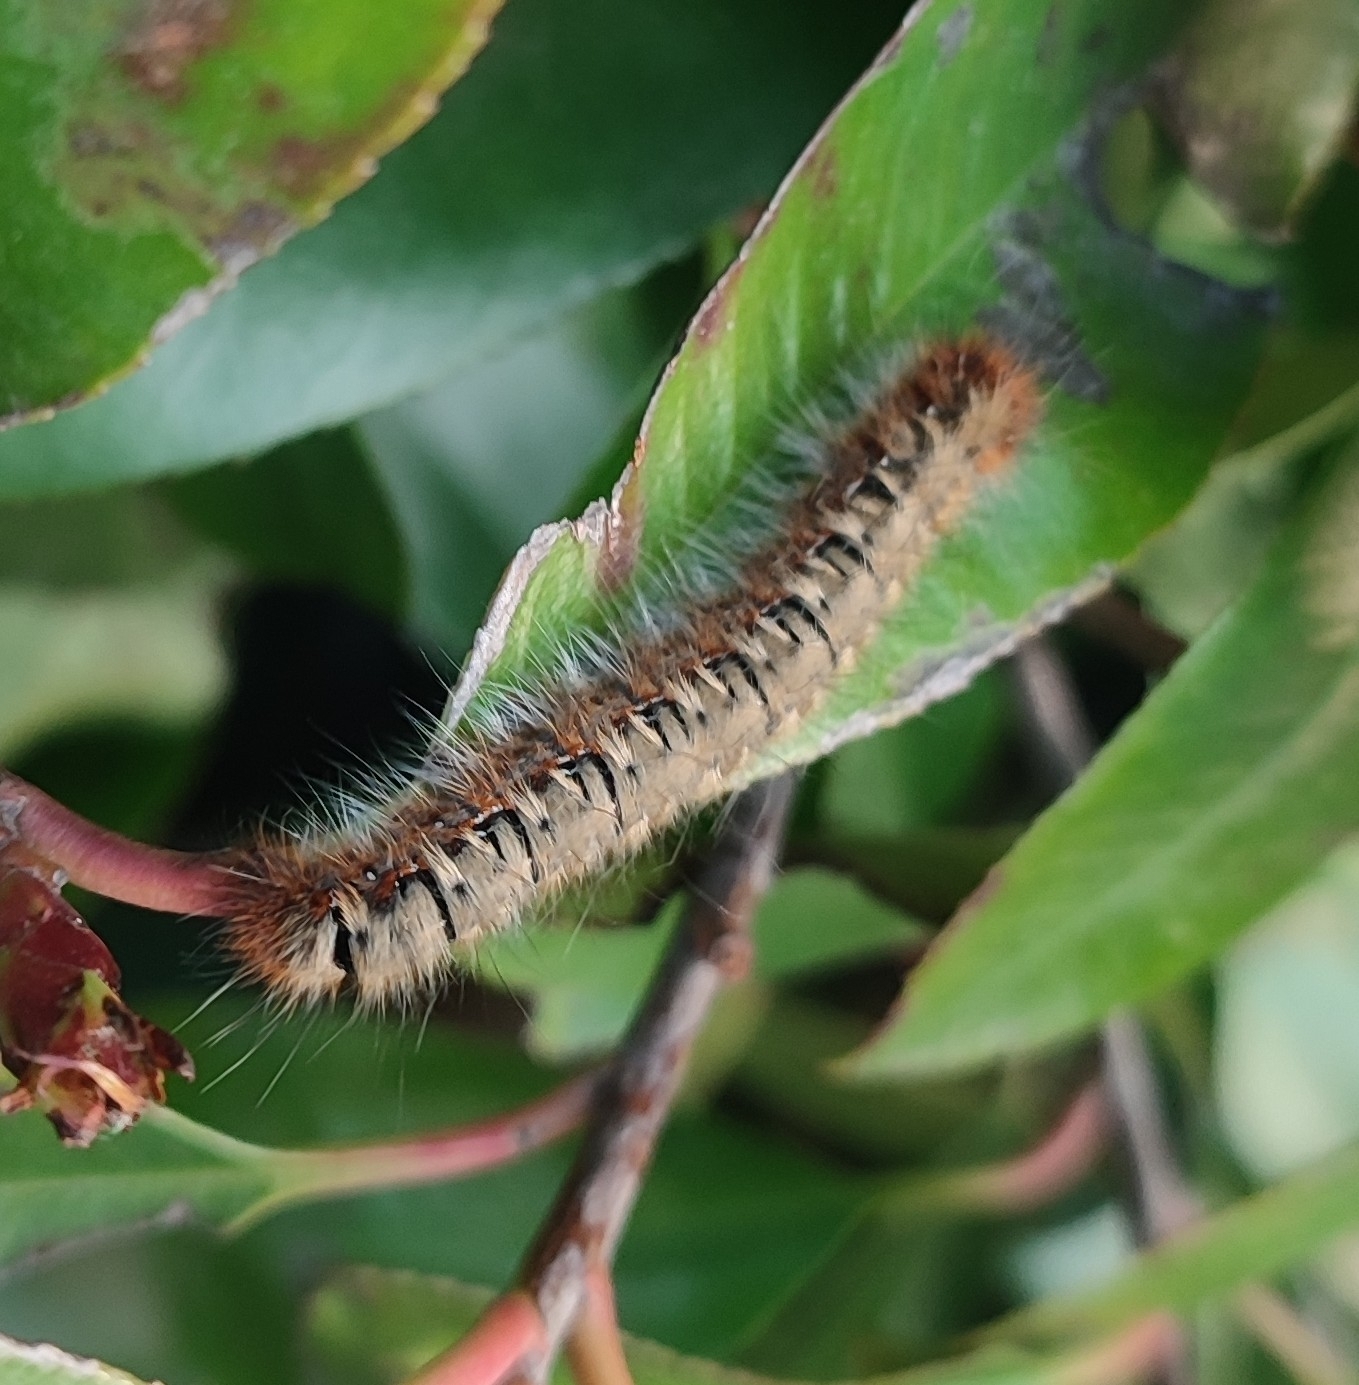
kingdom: Animalia
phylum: Arthropoda
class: Insecta
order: Lepidoptera
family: Lasiocampidae
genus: Lasiocampa
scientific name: Lasiocampa quercus
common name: Oak eggar
